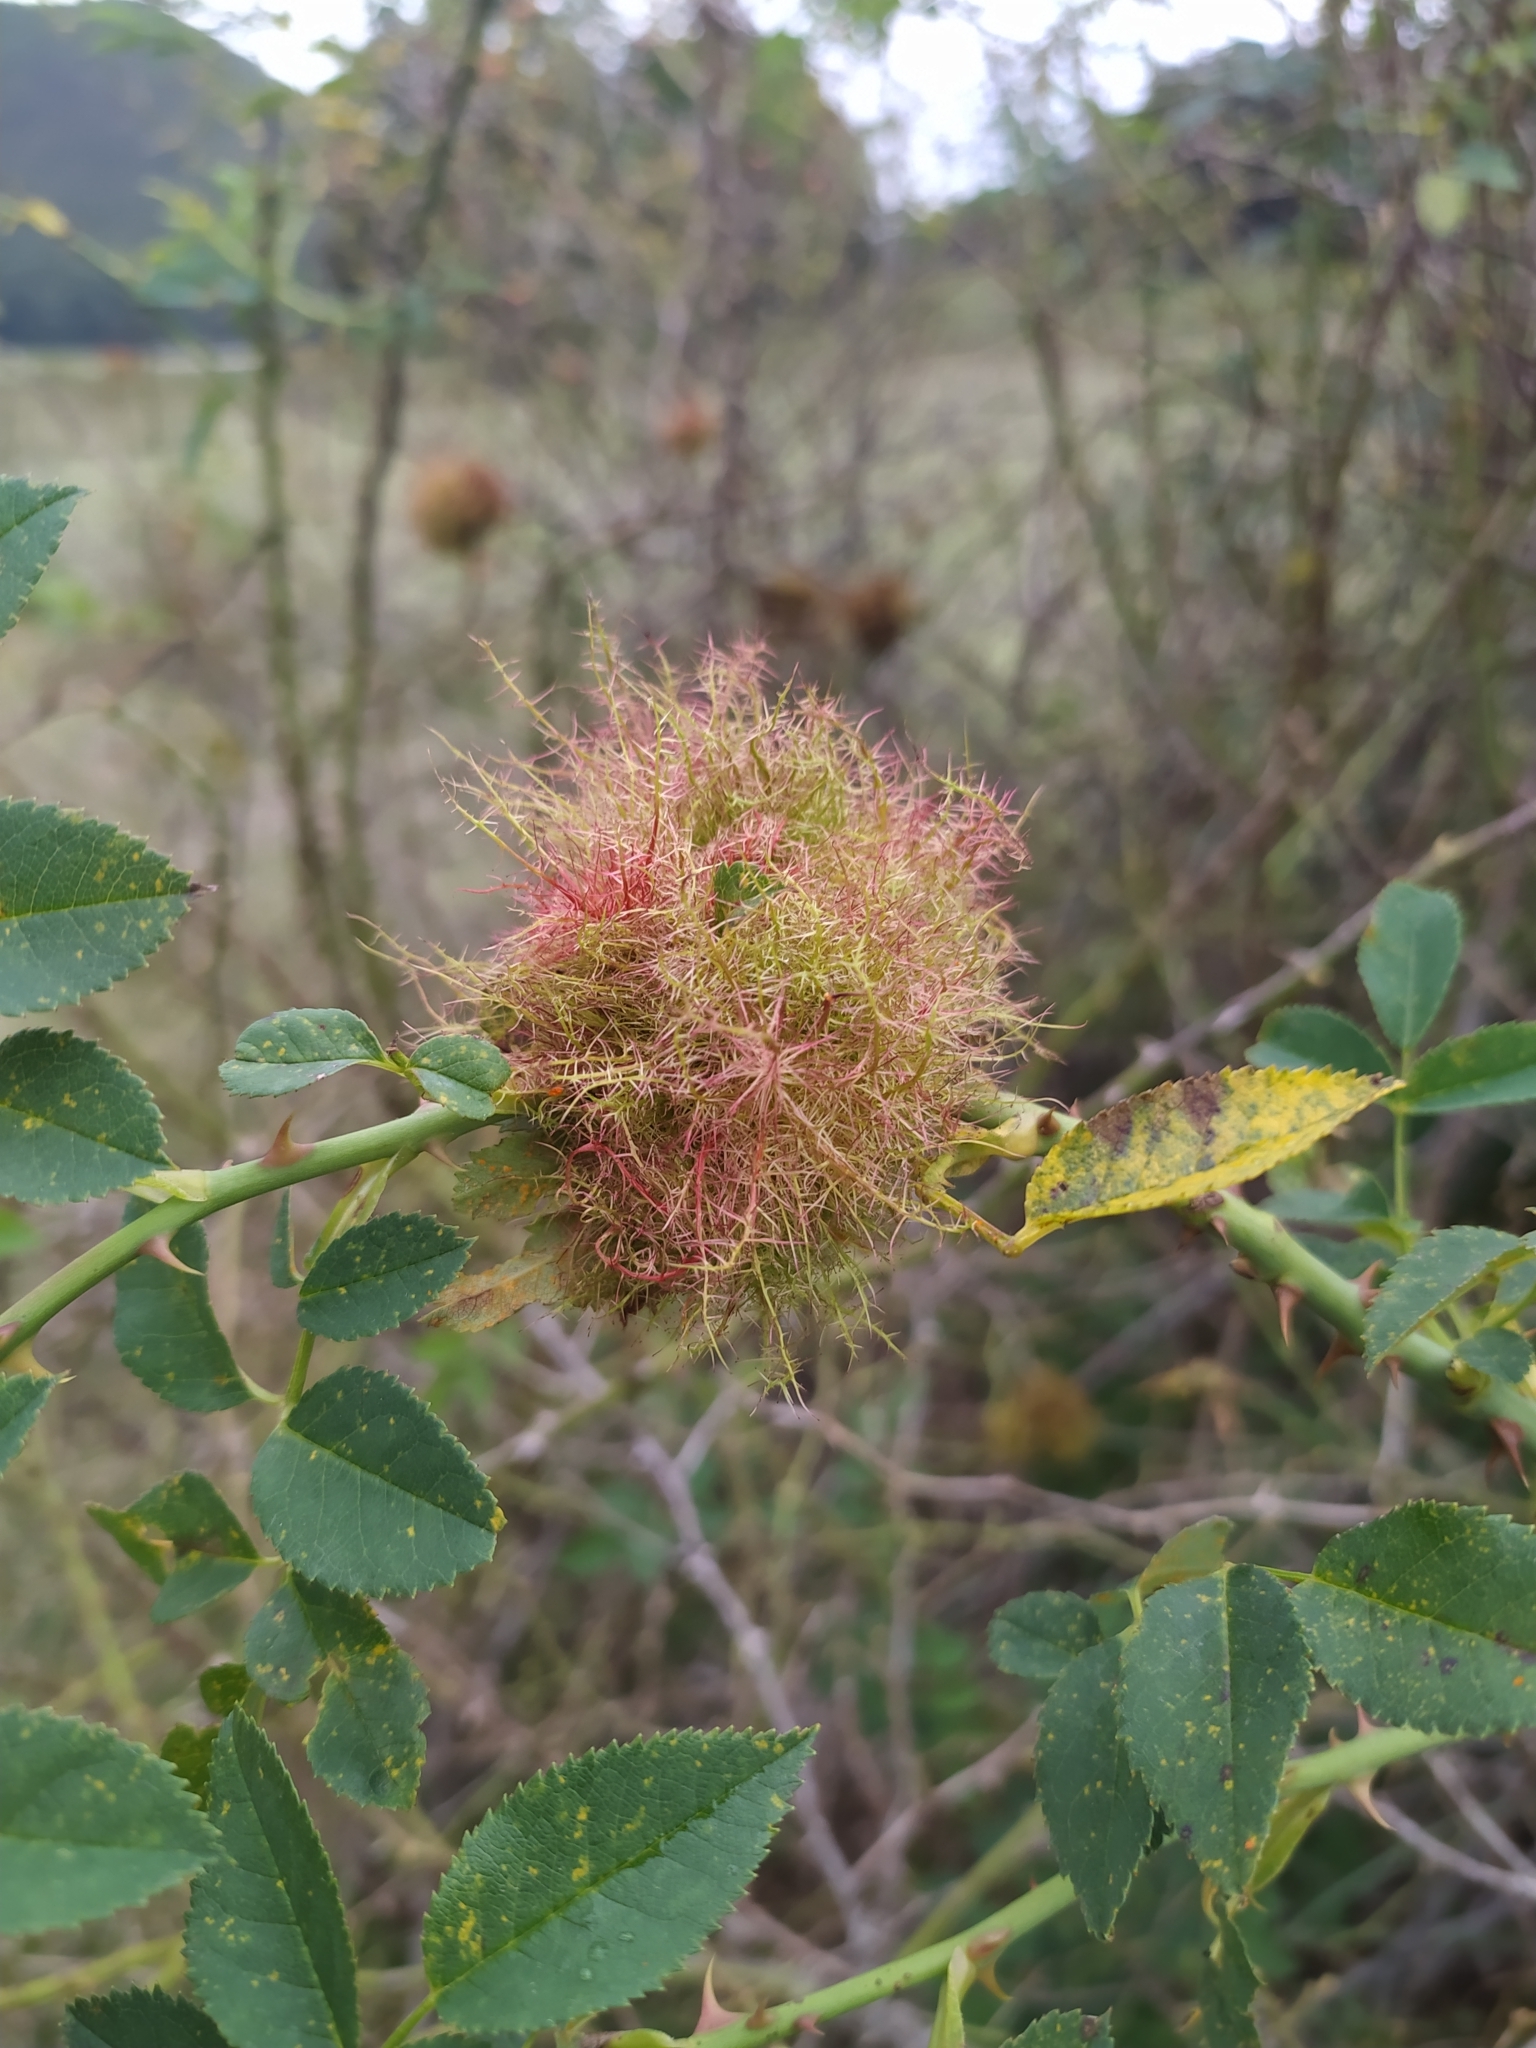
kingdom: Animalia
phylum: Arthropoda
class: Insecta
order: Hymenoptera
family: Cynipidae
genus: Diplolepis
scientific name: Diplolepis rosae
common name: Bedeguar gall
